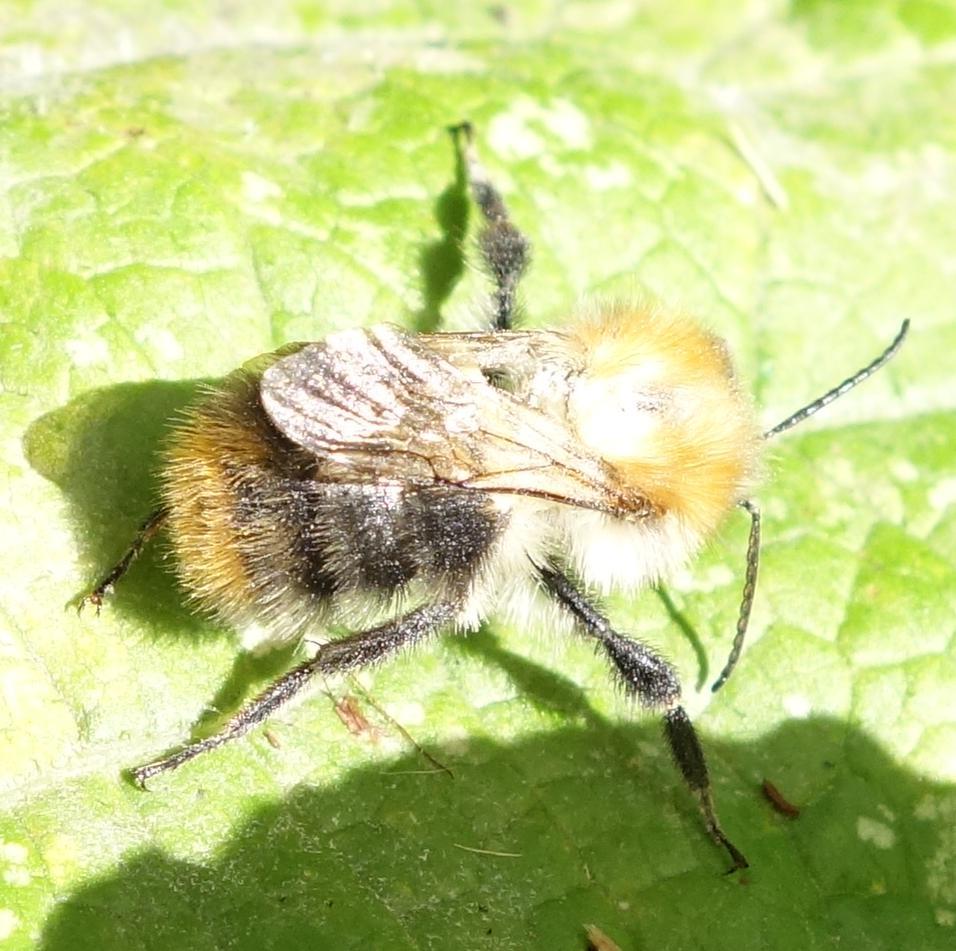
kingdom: Animalia
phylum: Arthropoda
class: Insecta
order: Hymenoptera
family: Apidae
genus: Bombus
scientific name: Bombus pascuorum
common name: Common carder bee
